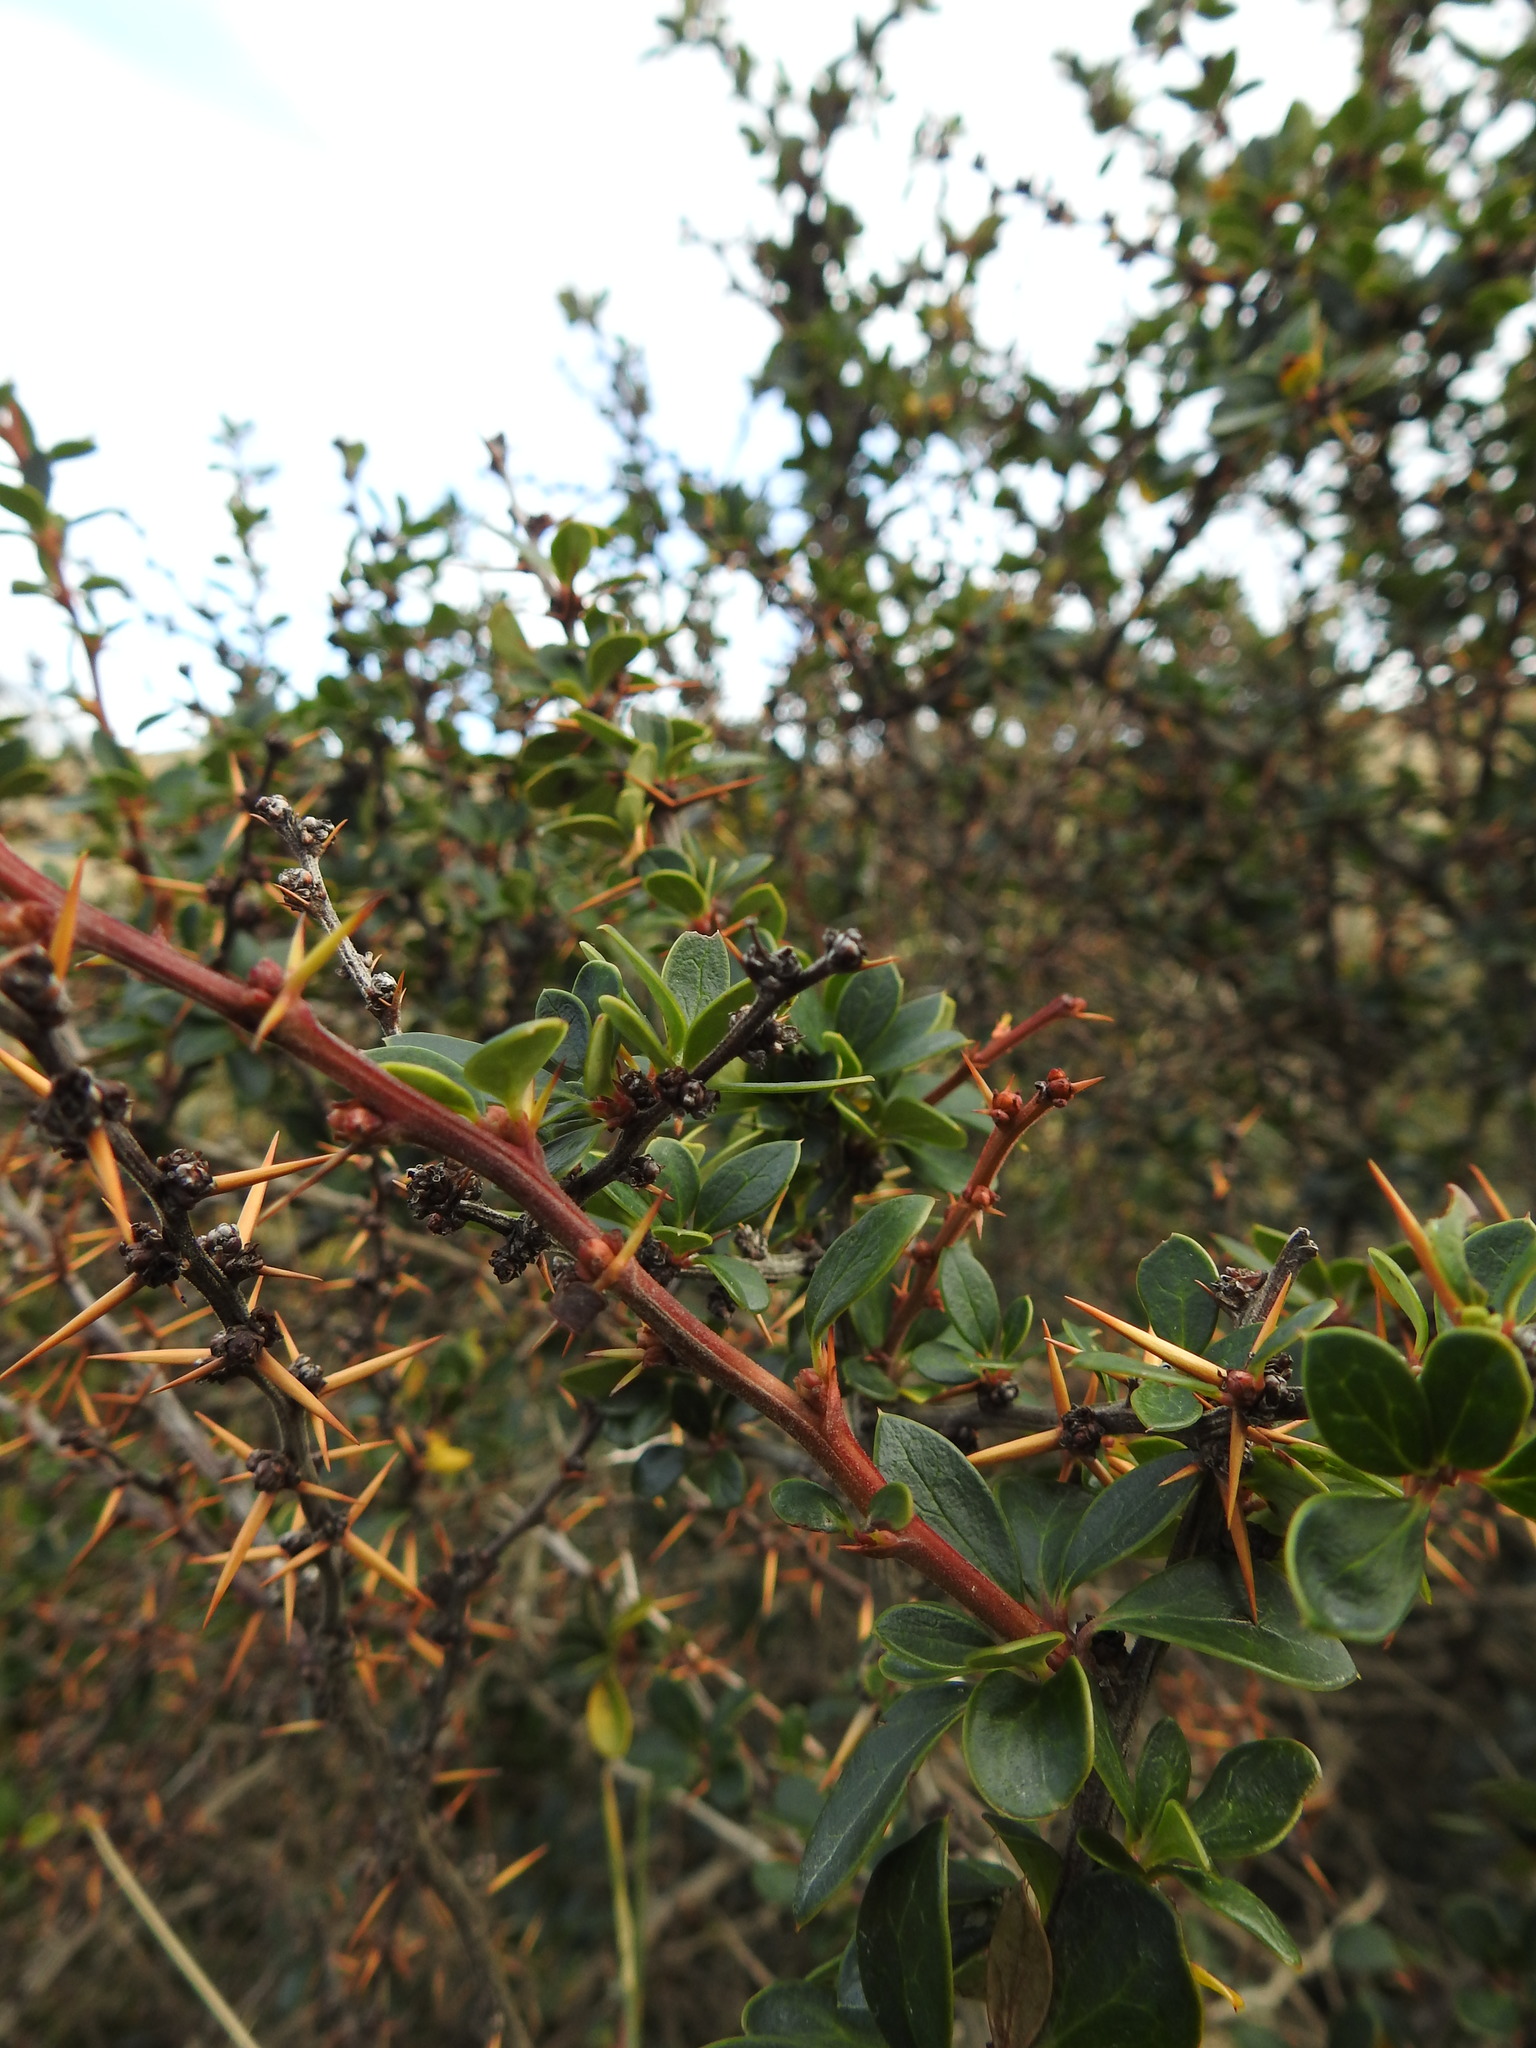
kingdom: Plantae
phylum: Tracheophyta
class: Magnoliopsida
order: Ranunculales
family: Berberidaceae
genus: Berberis
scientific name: Berberis microphylla
